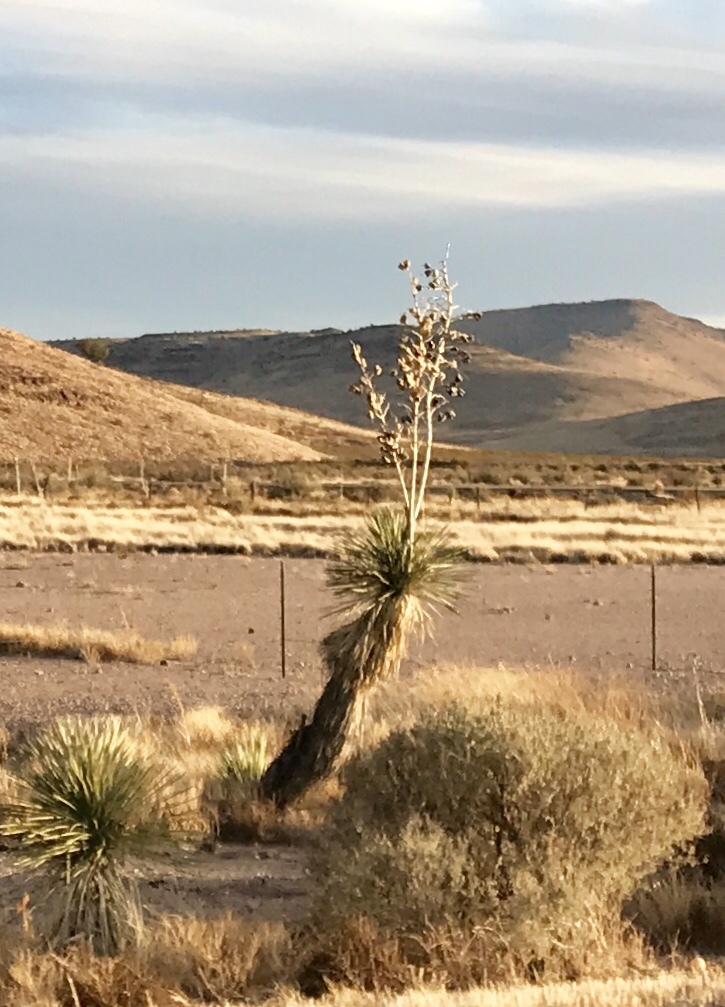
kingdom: Plantae
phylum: Tracheophyta
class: Liliopsida
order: Asparagales
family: Asparagaceae
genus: Yucca
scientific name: Yucca elata
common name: Palmella
